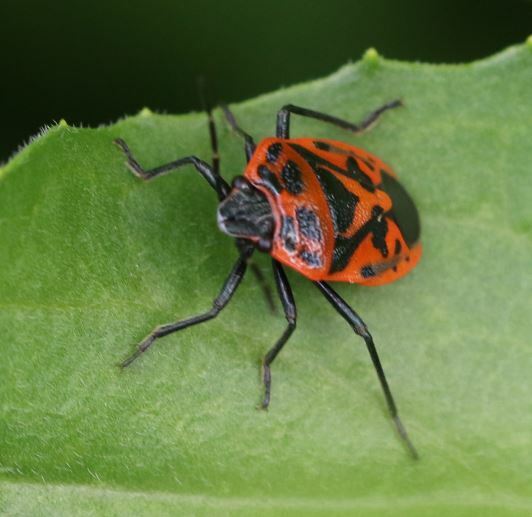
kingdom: Animalia
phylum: Arthropoda
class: Insecta
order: Hemiptera
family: Pentatomidae
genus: Eurydema
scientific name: Eurydema ornata
